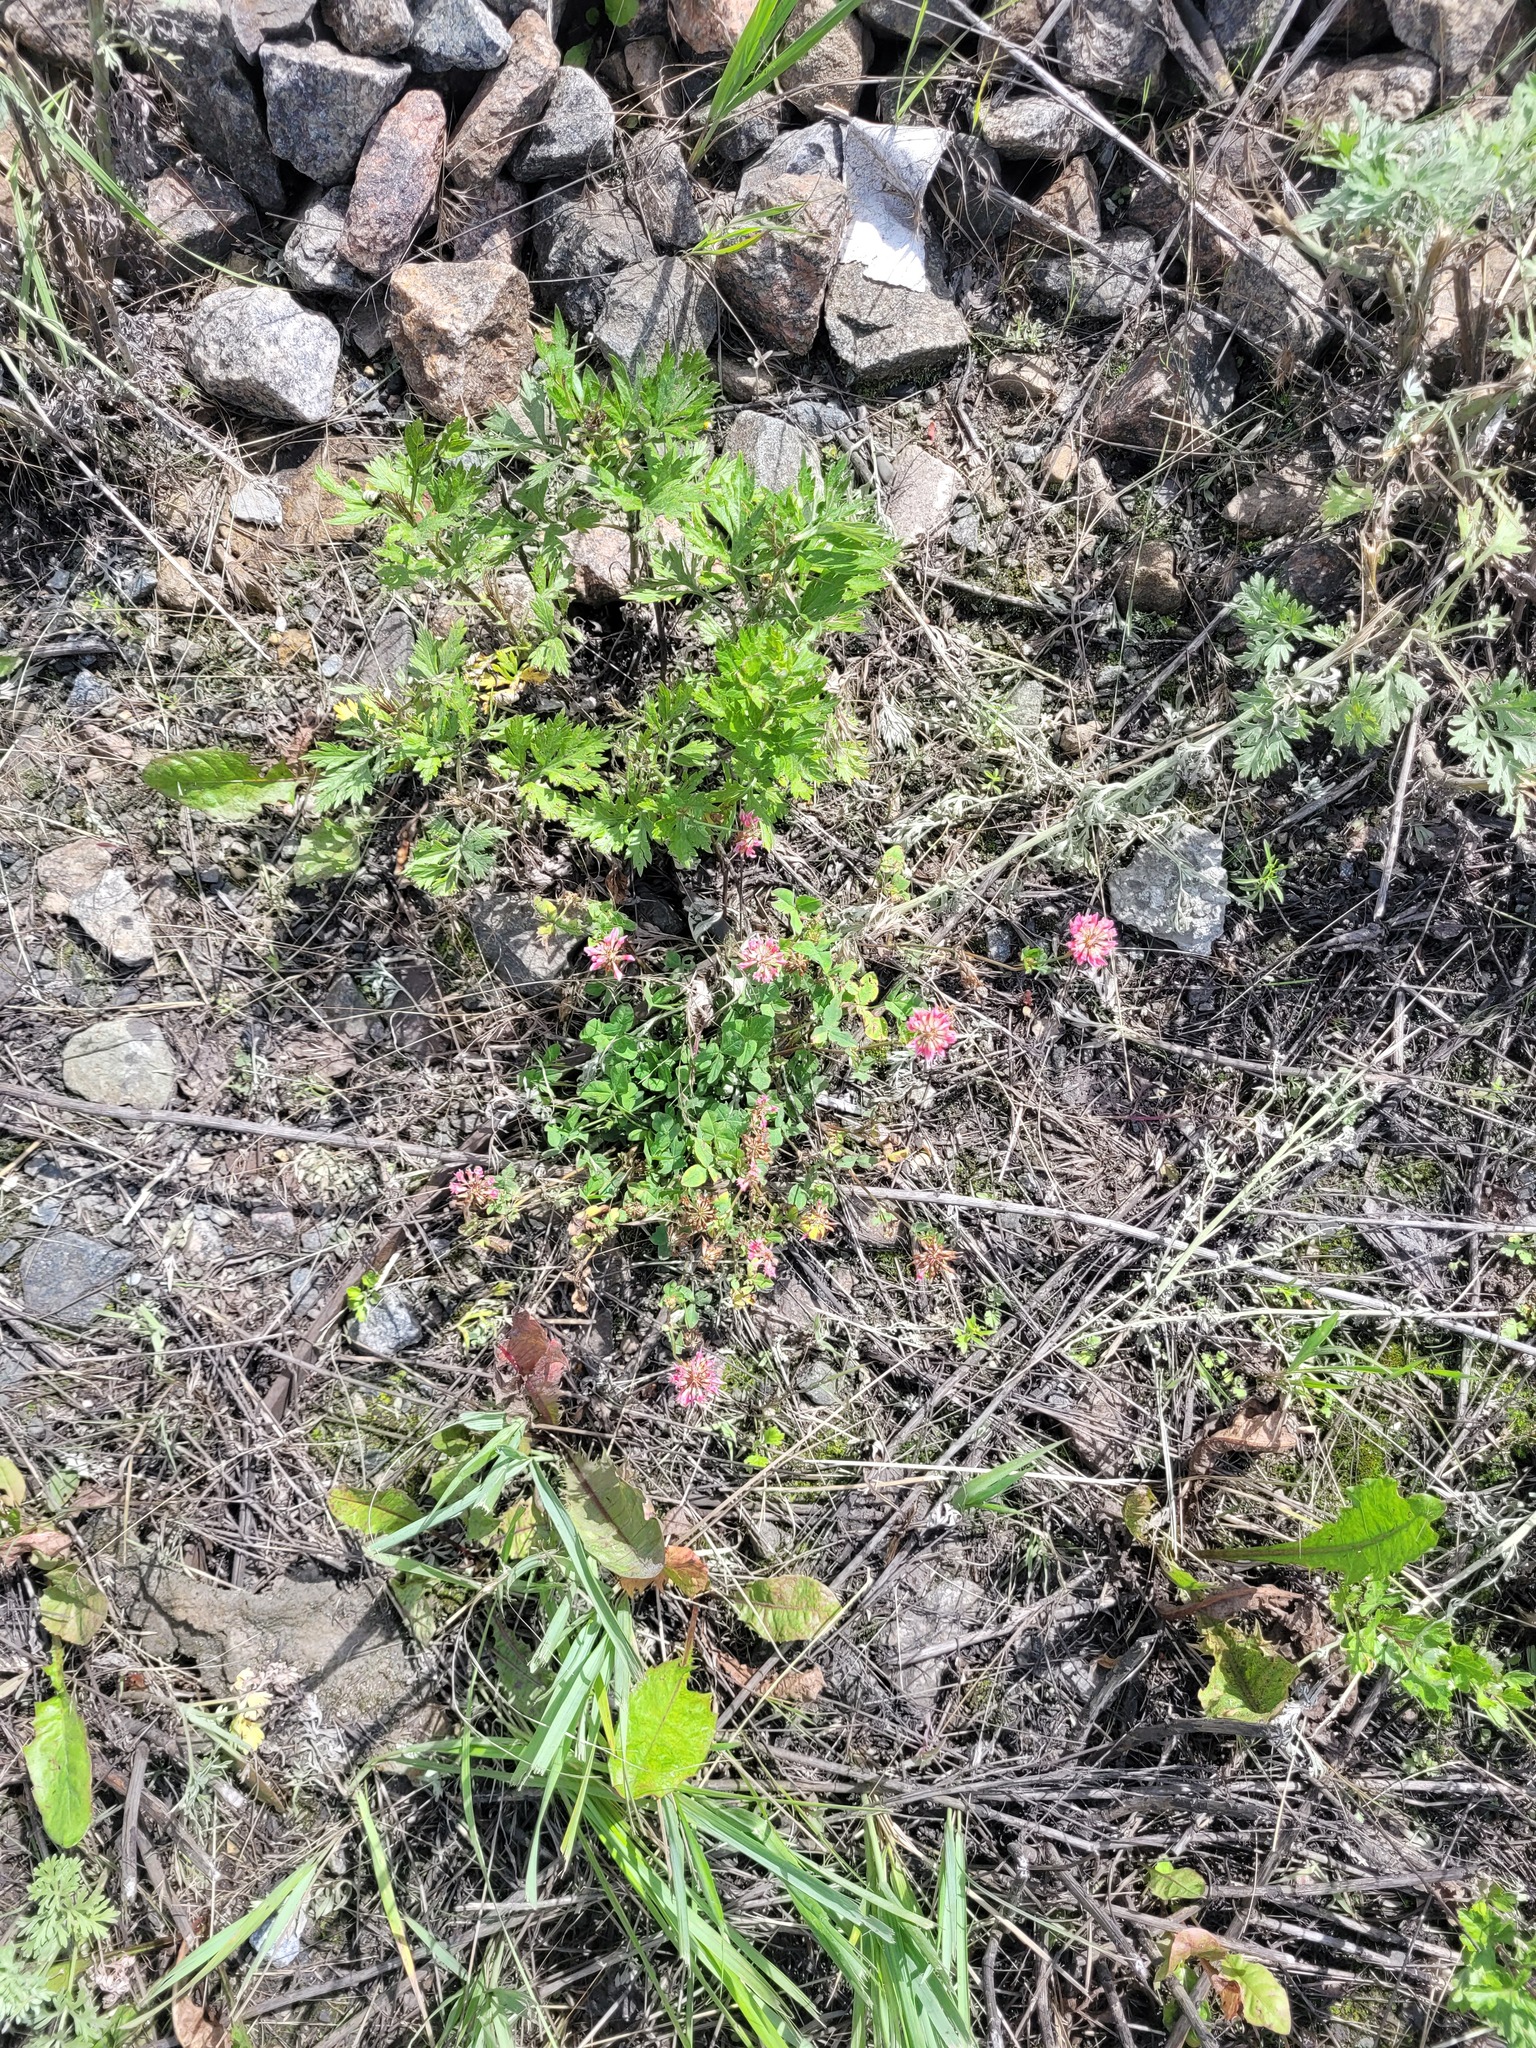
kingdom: Plantae
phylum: Tracheophyta
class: Magnoliopsida
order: Fabales
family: Fabaceae
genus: Trifolium
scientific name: Trifolium hybridum
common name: Alsike clover
